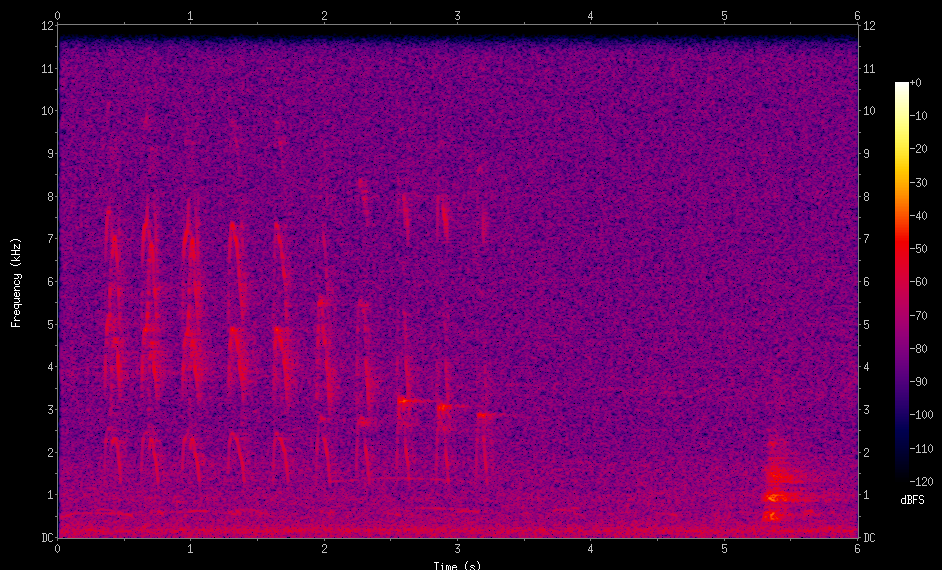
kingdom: Animalia
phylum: Chordata
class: Aves
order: Passeriformes
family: Furnariidae
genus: Furnarius
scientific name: Furnarius rufus
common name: Rufous hornero
